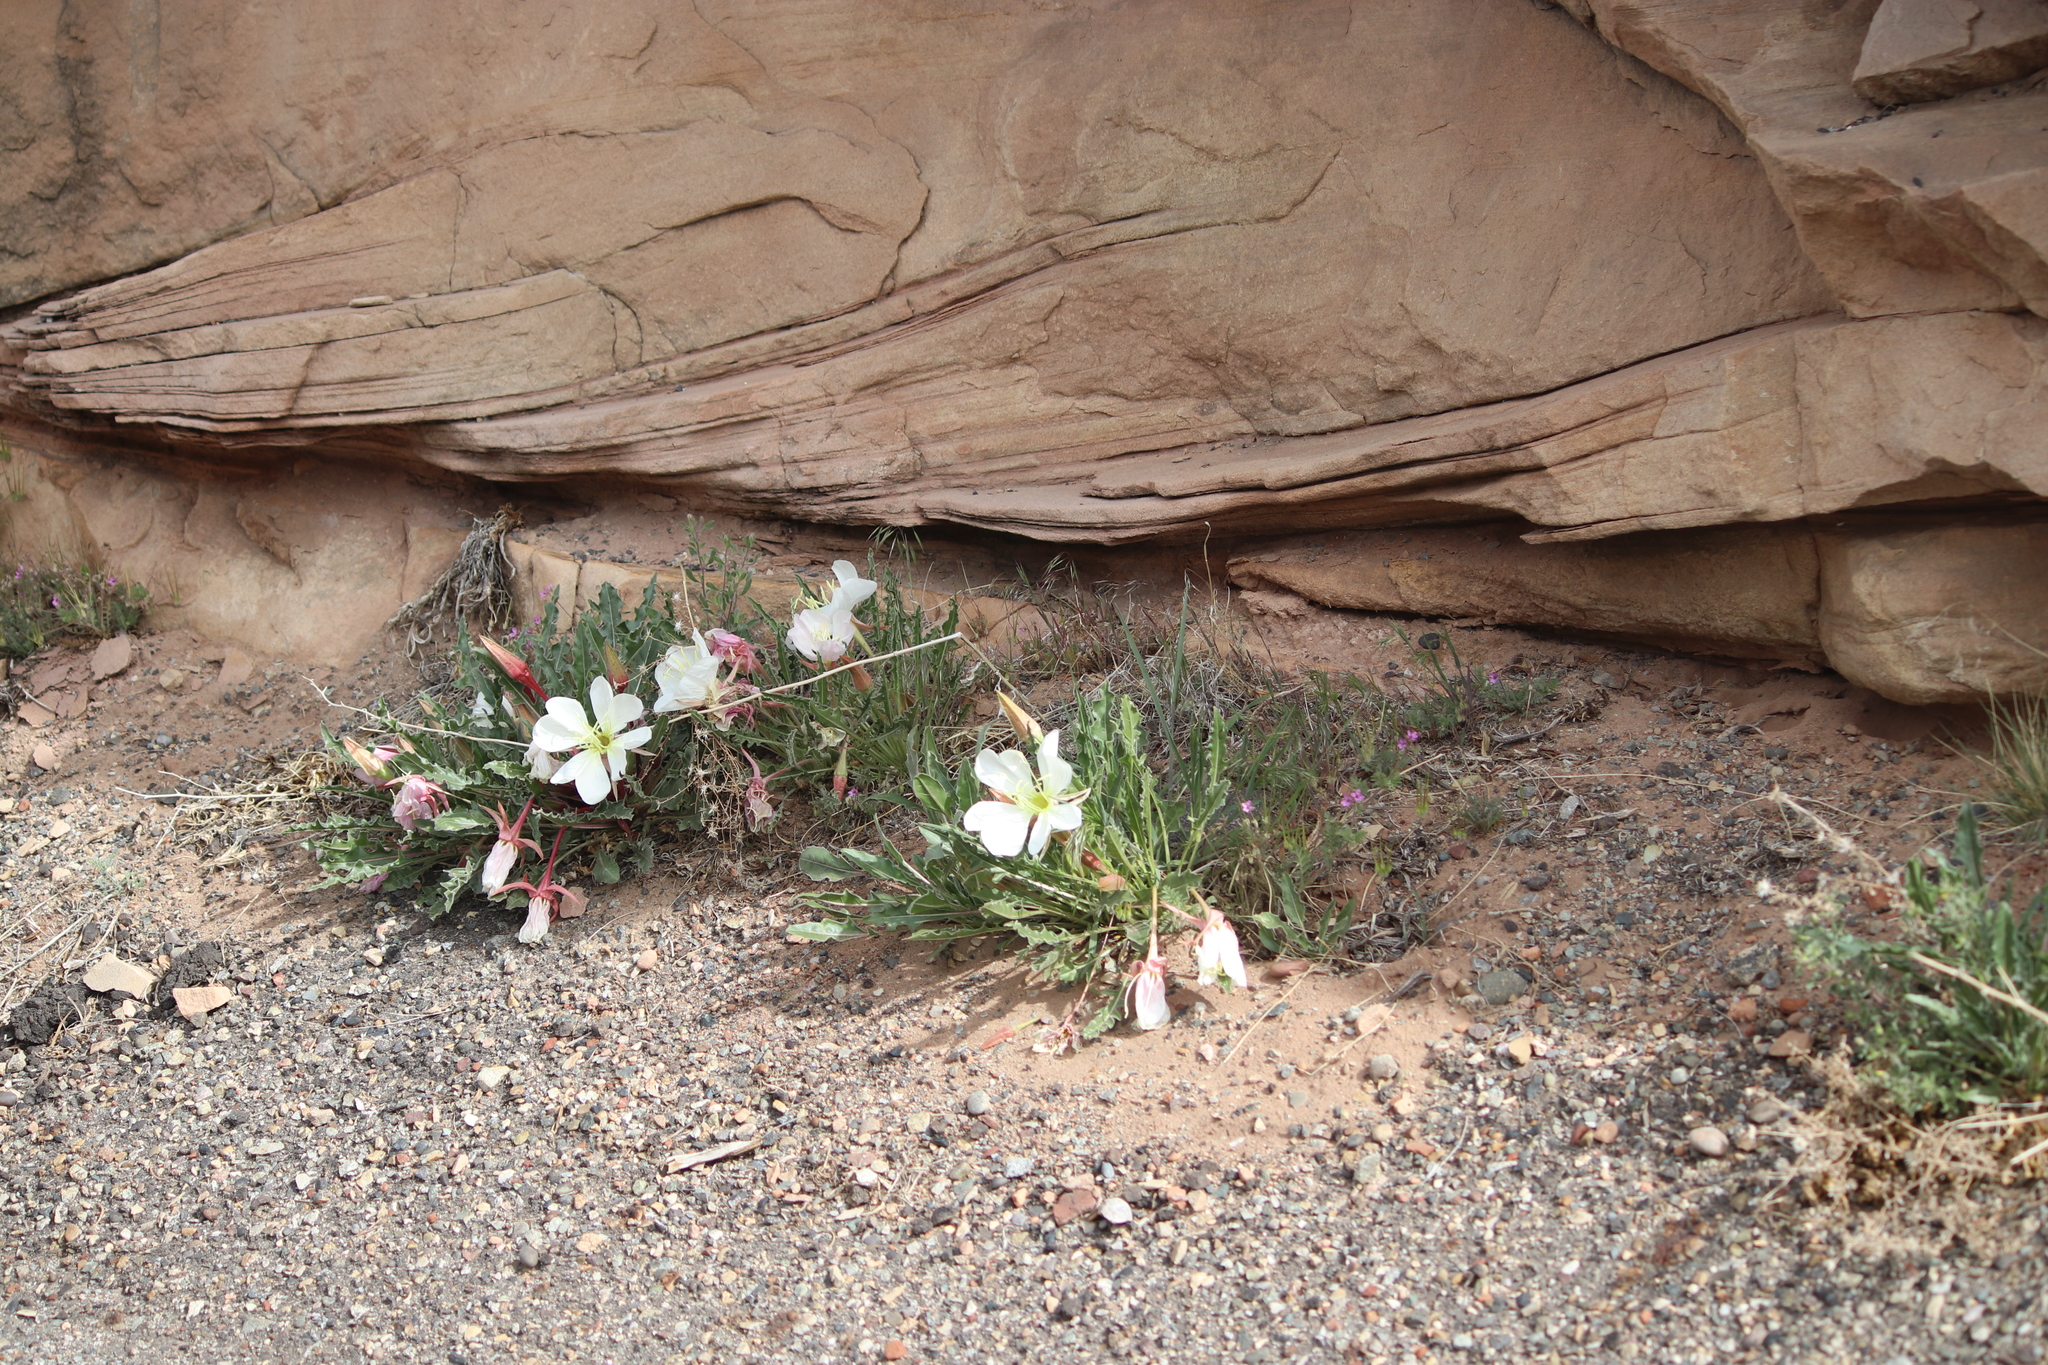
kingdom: Plantae
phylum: Tracheophyta
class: Magnoliopsida
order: Myrtales
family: Onagraceae
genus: Oenothera
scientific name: Oenothera cespitosa
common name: Tufted evening-primrose
